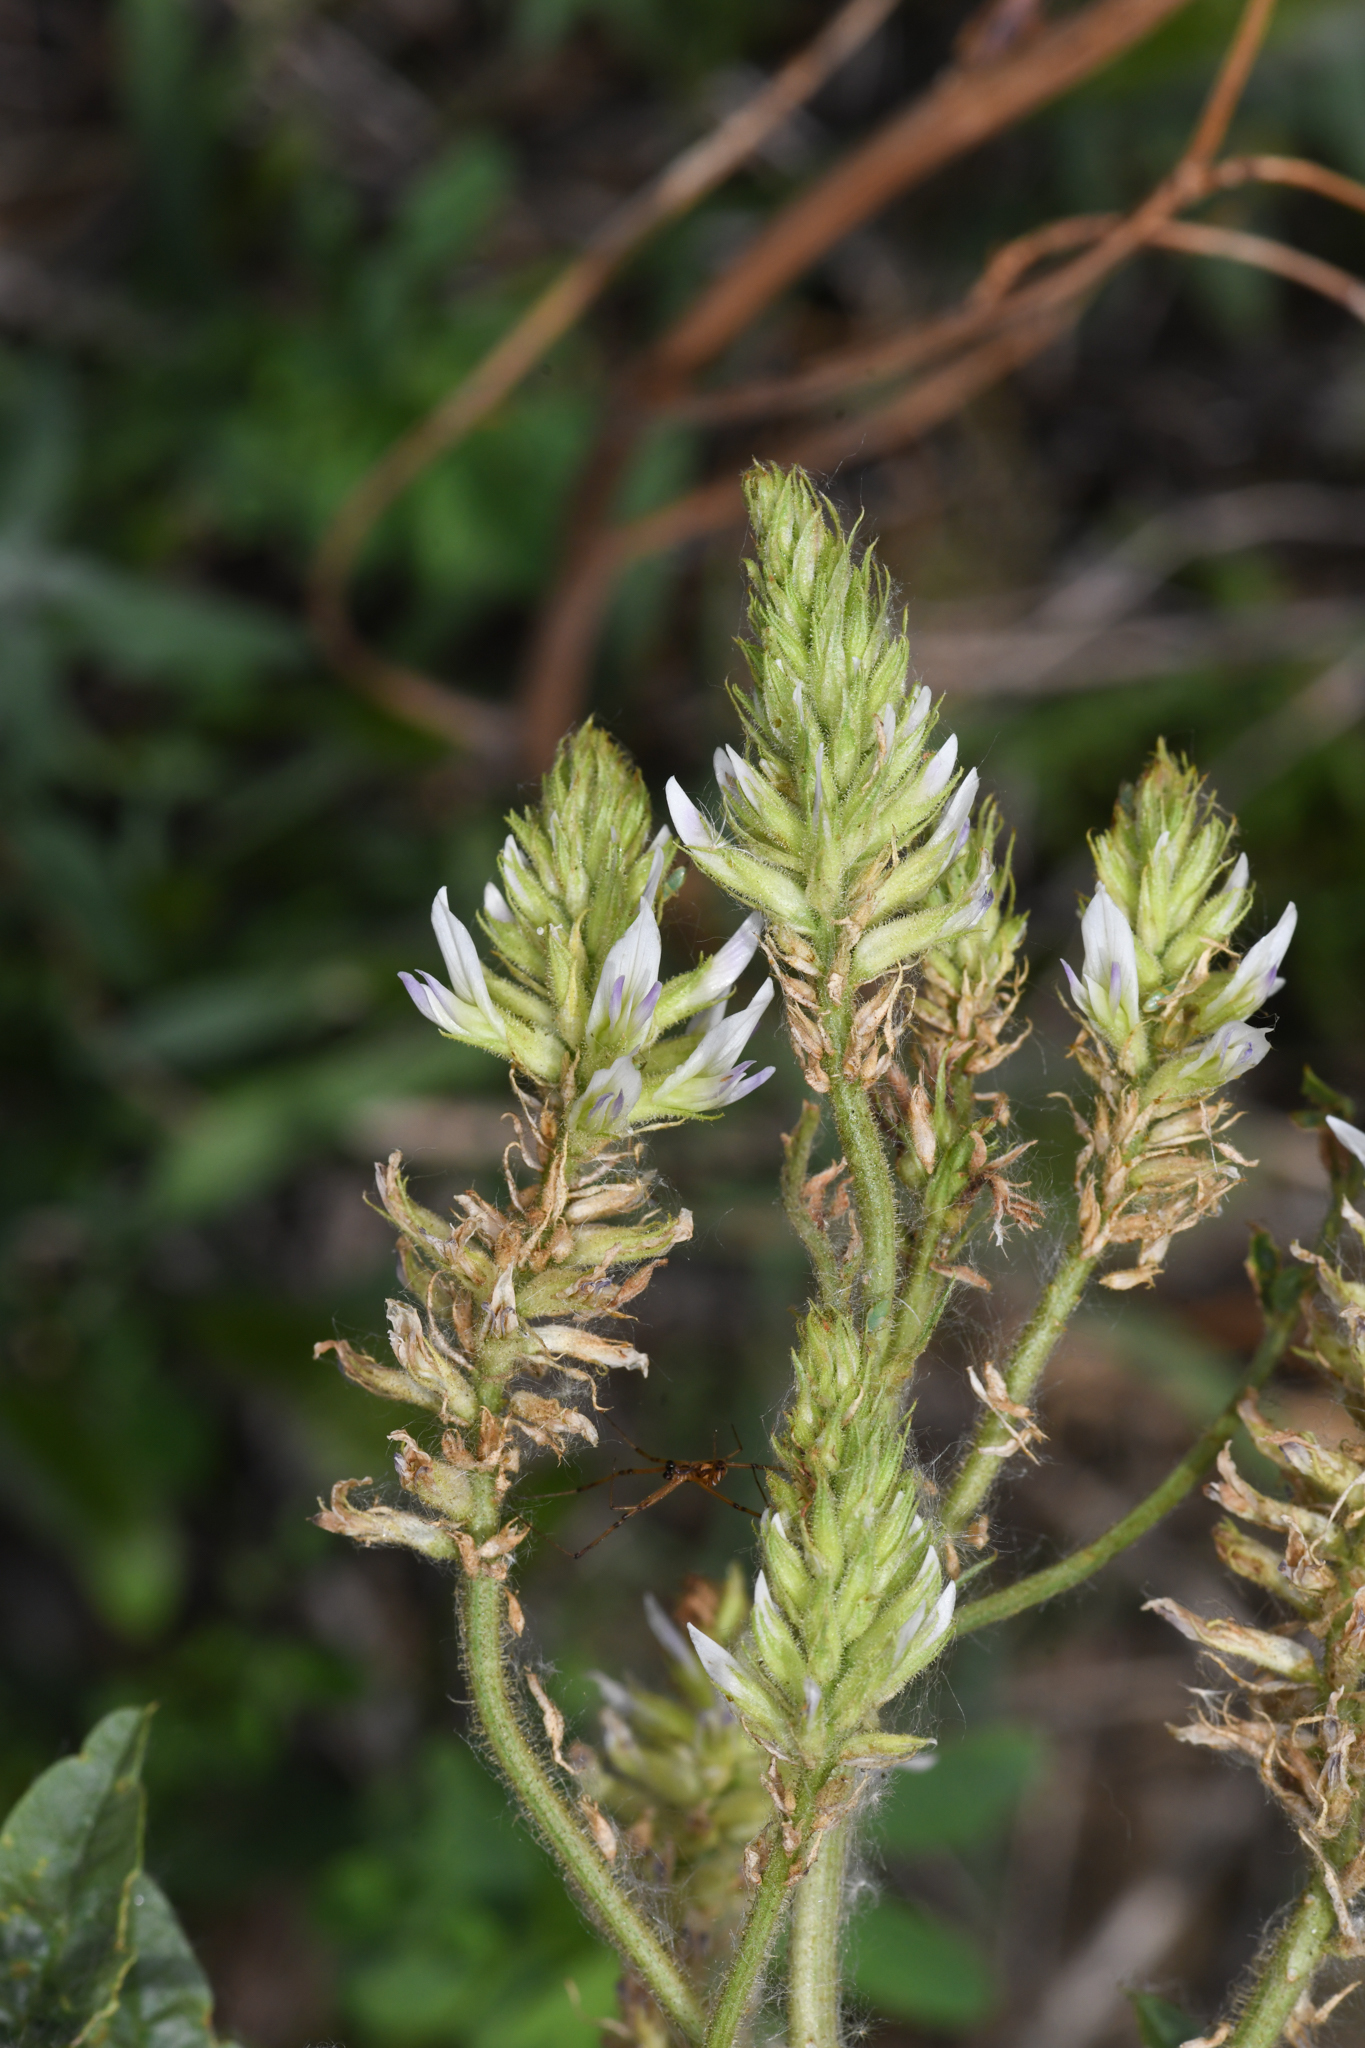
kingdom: Plantae
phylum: Tracheophyta
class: Magnoliopsida
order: Fabales
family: Fabaceae
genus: Glycyrrhiza
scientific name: Glycyrrhiza lepidota
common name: American liquorice
